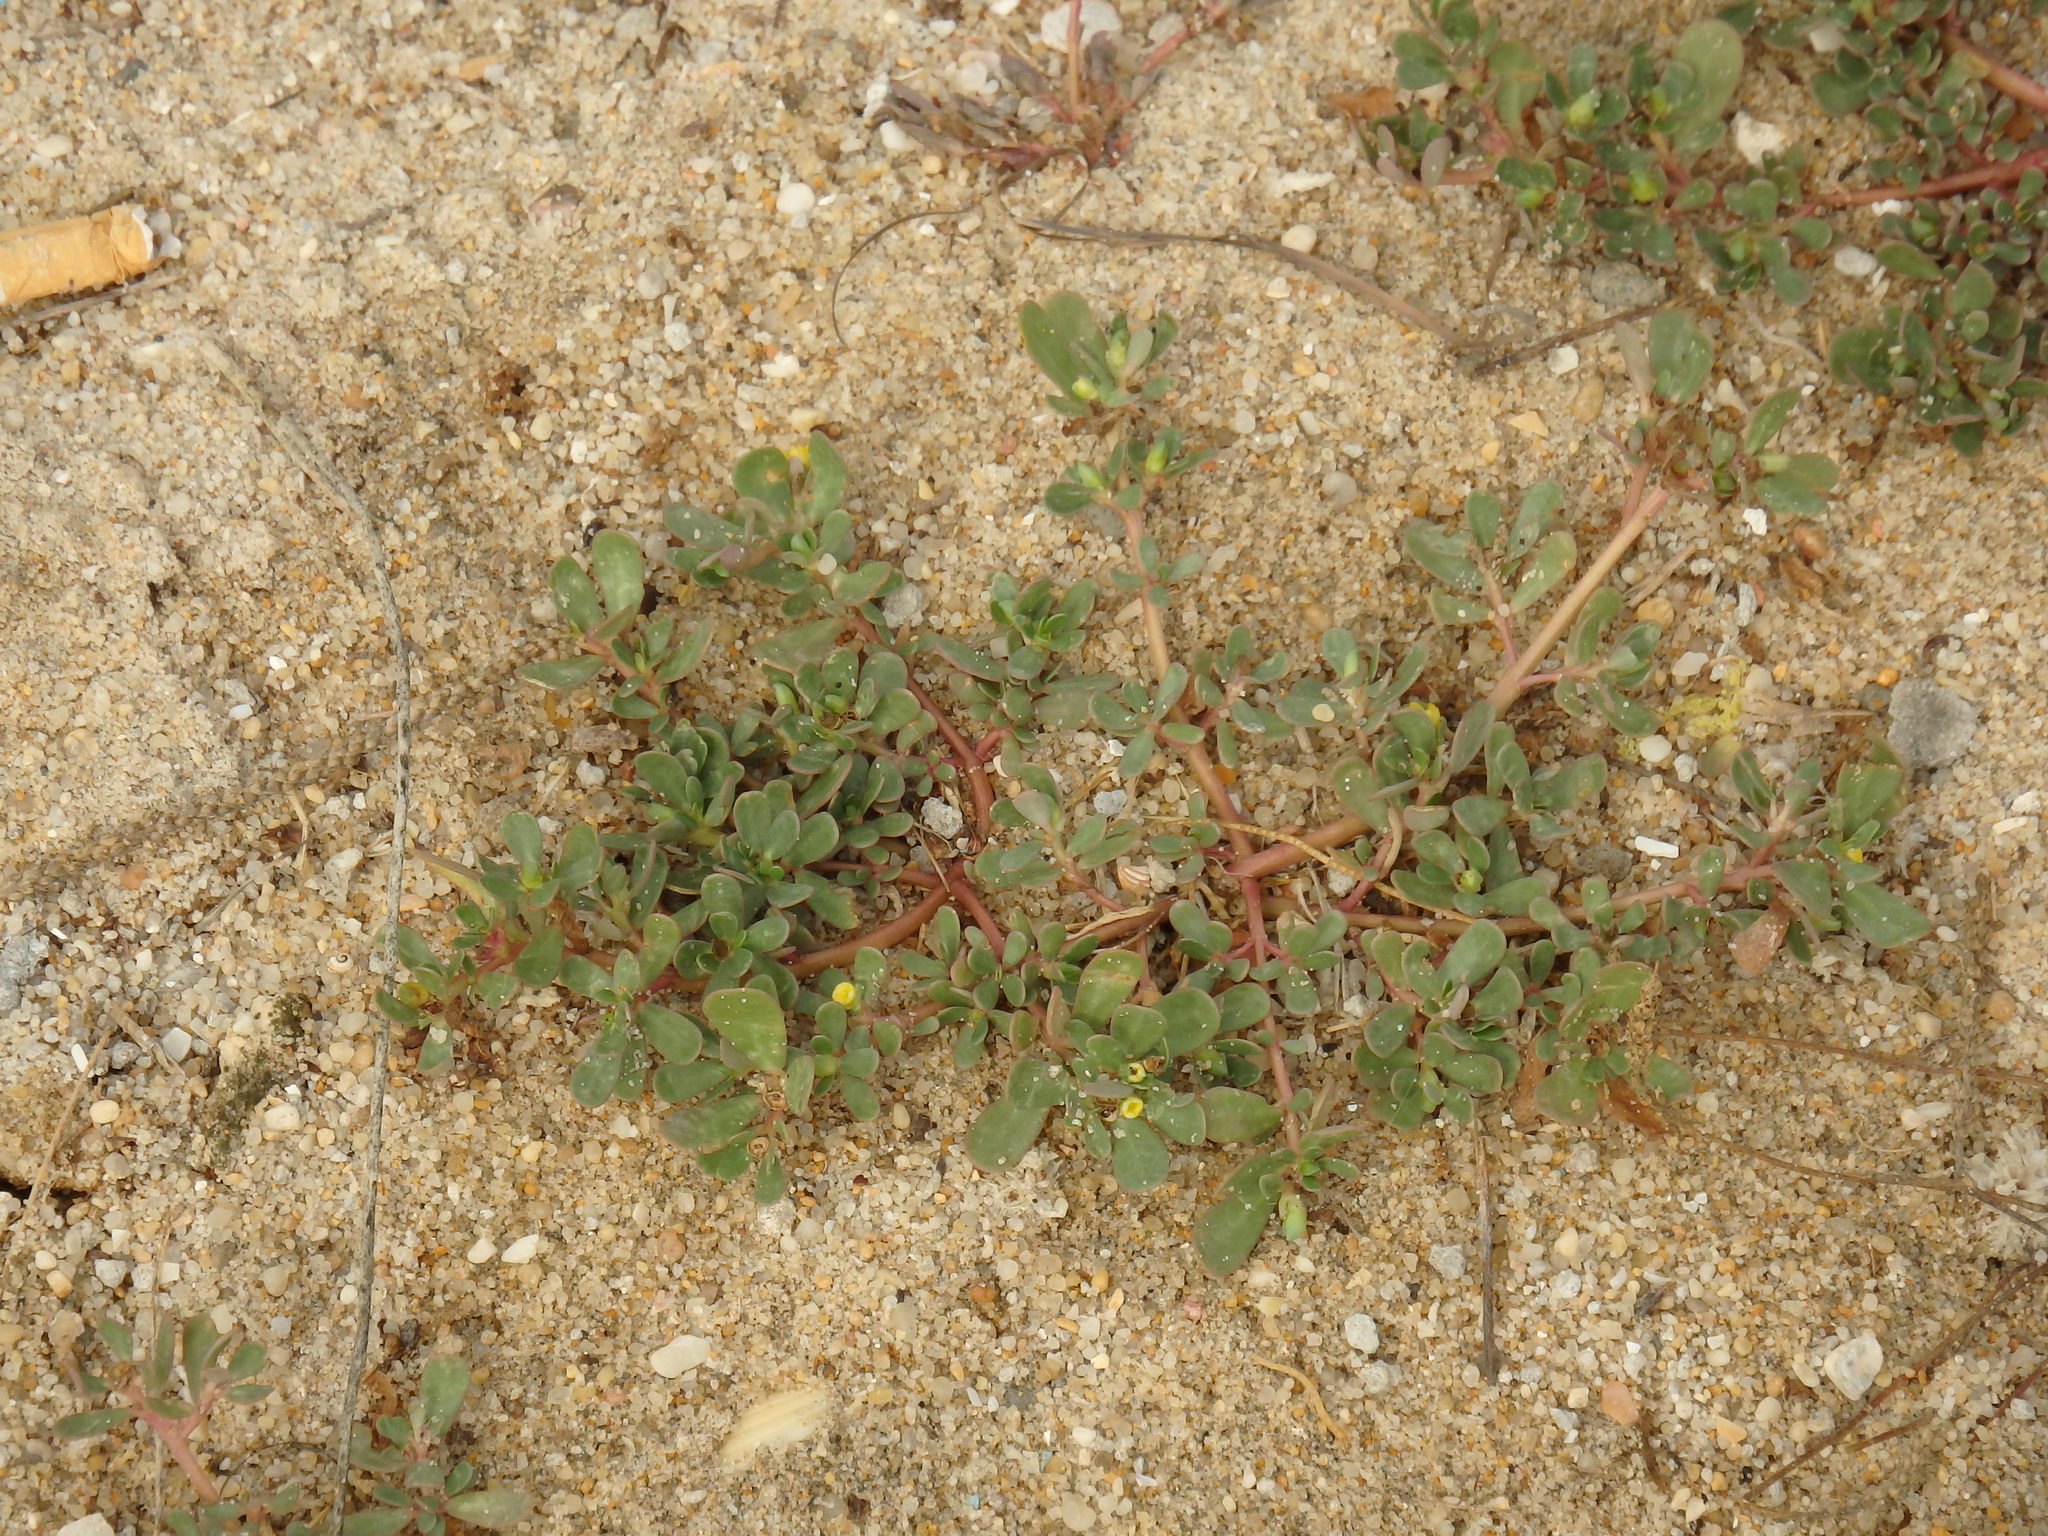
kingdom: Plantae
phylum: Tracheophyta
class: Magnoliopsida
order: Caryophyllales
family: Portulacaceae
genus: Portulaca
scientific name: Portulaca oleracea
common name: Common purslane
